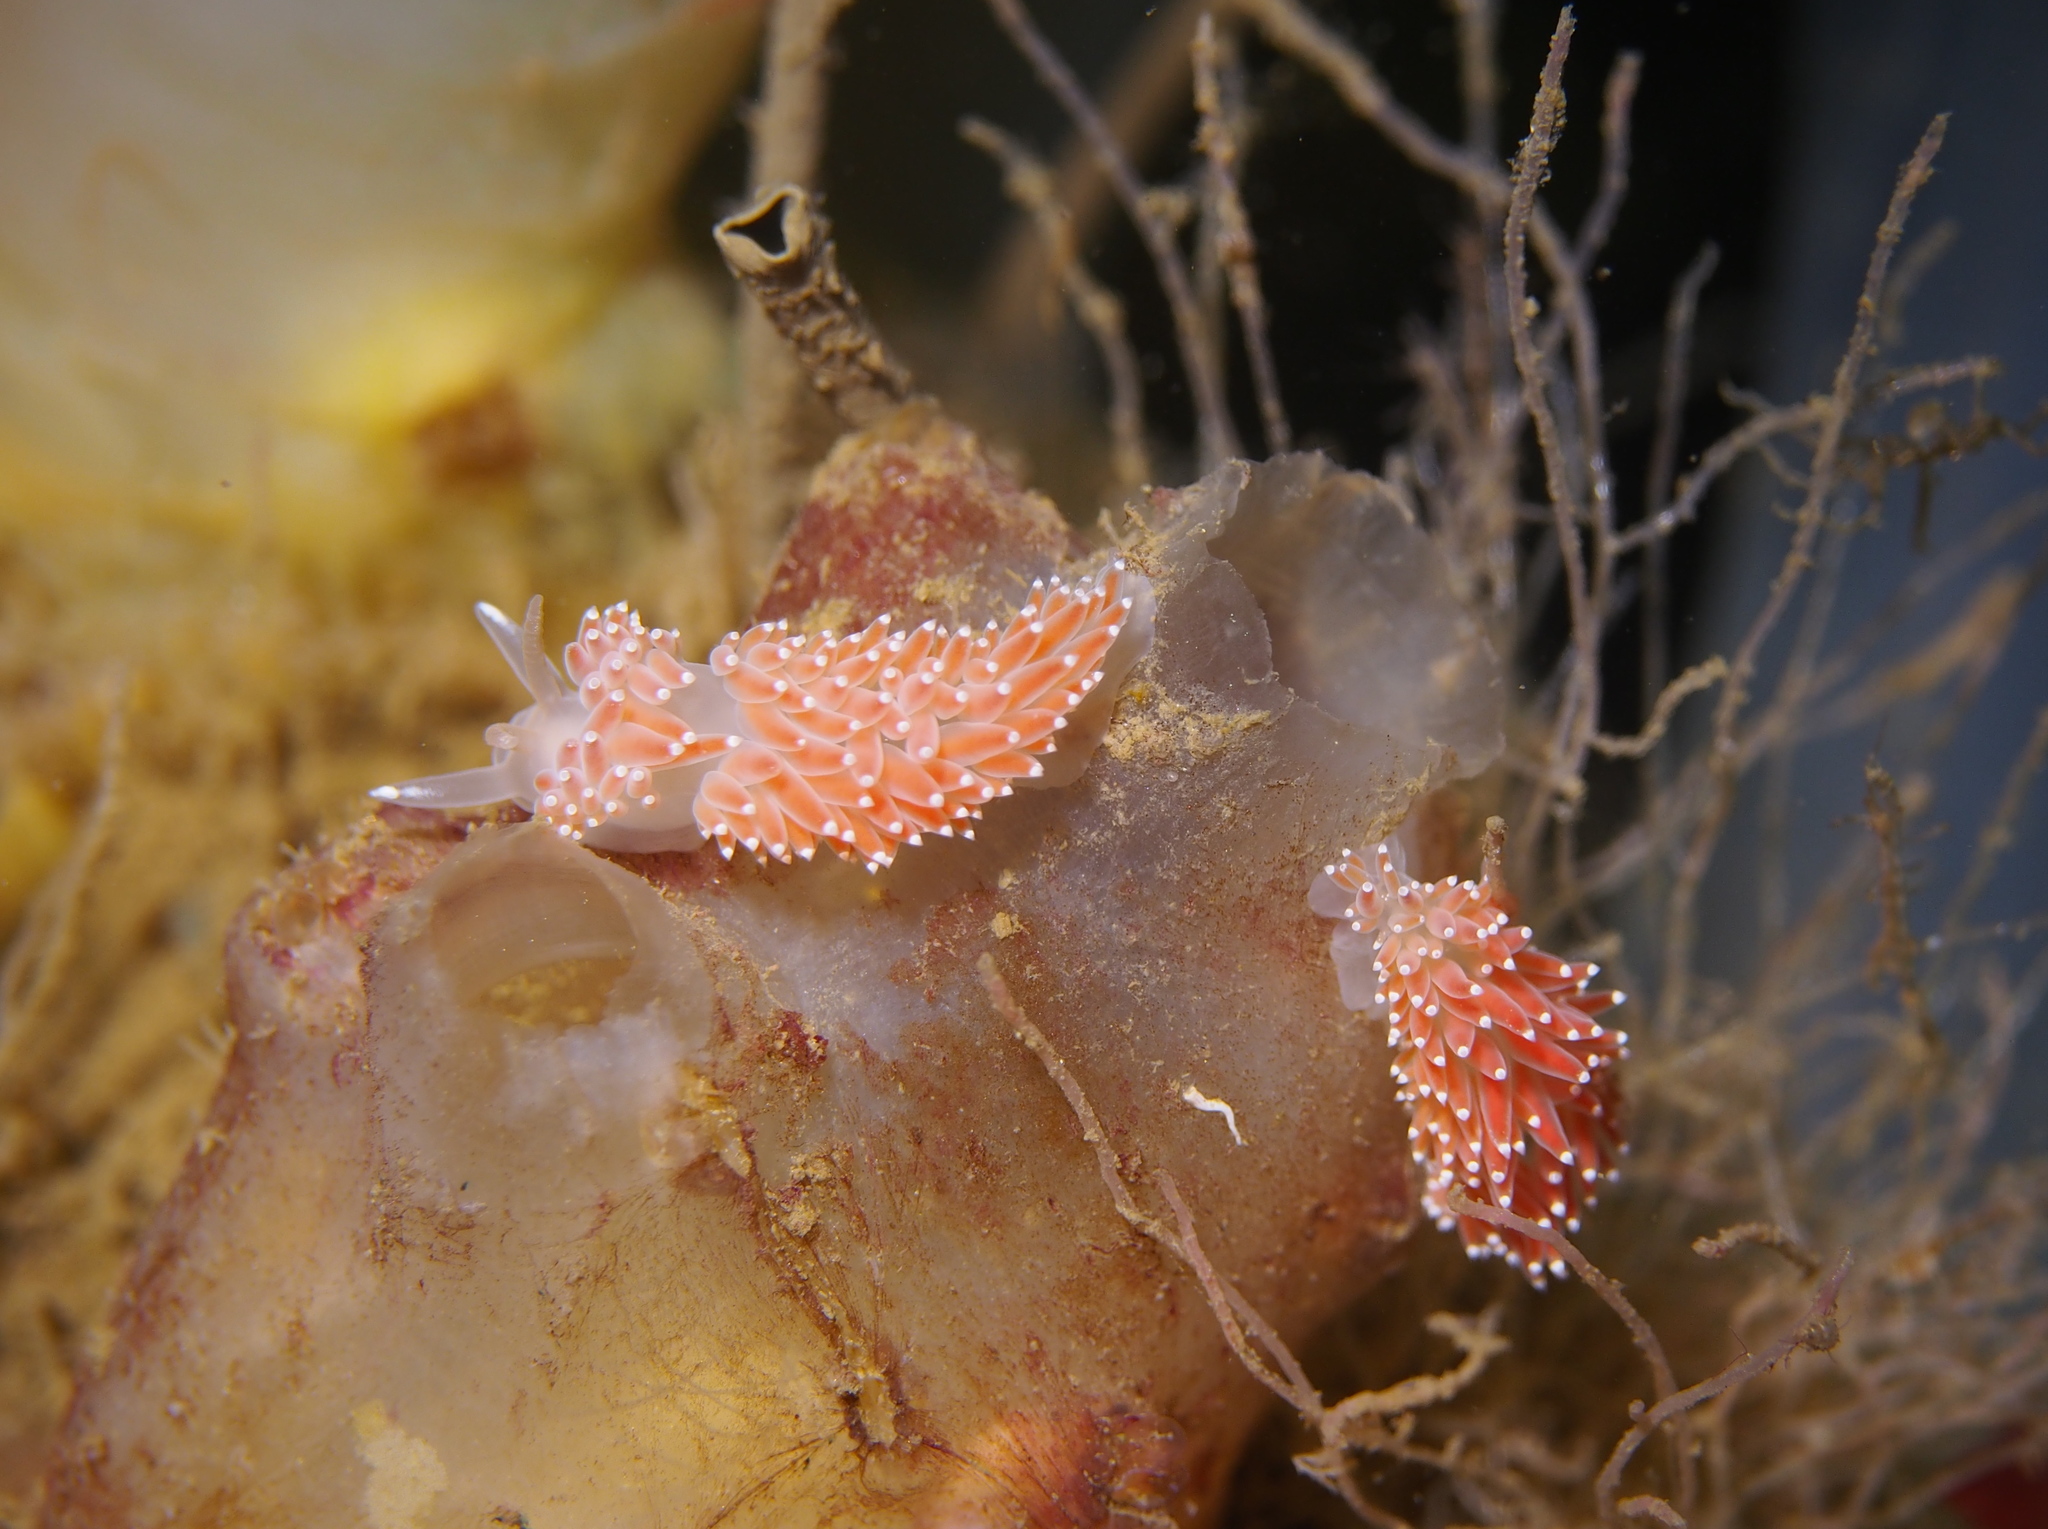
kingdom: Animalia
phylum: Mollusca
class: Gastropoda
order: Nudibranchia
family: Coryphellidae
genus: Coryphella
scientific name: Coryphella verrucosa
